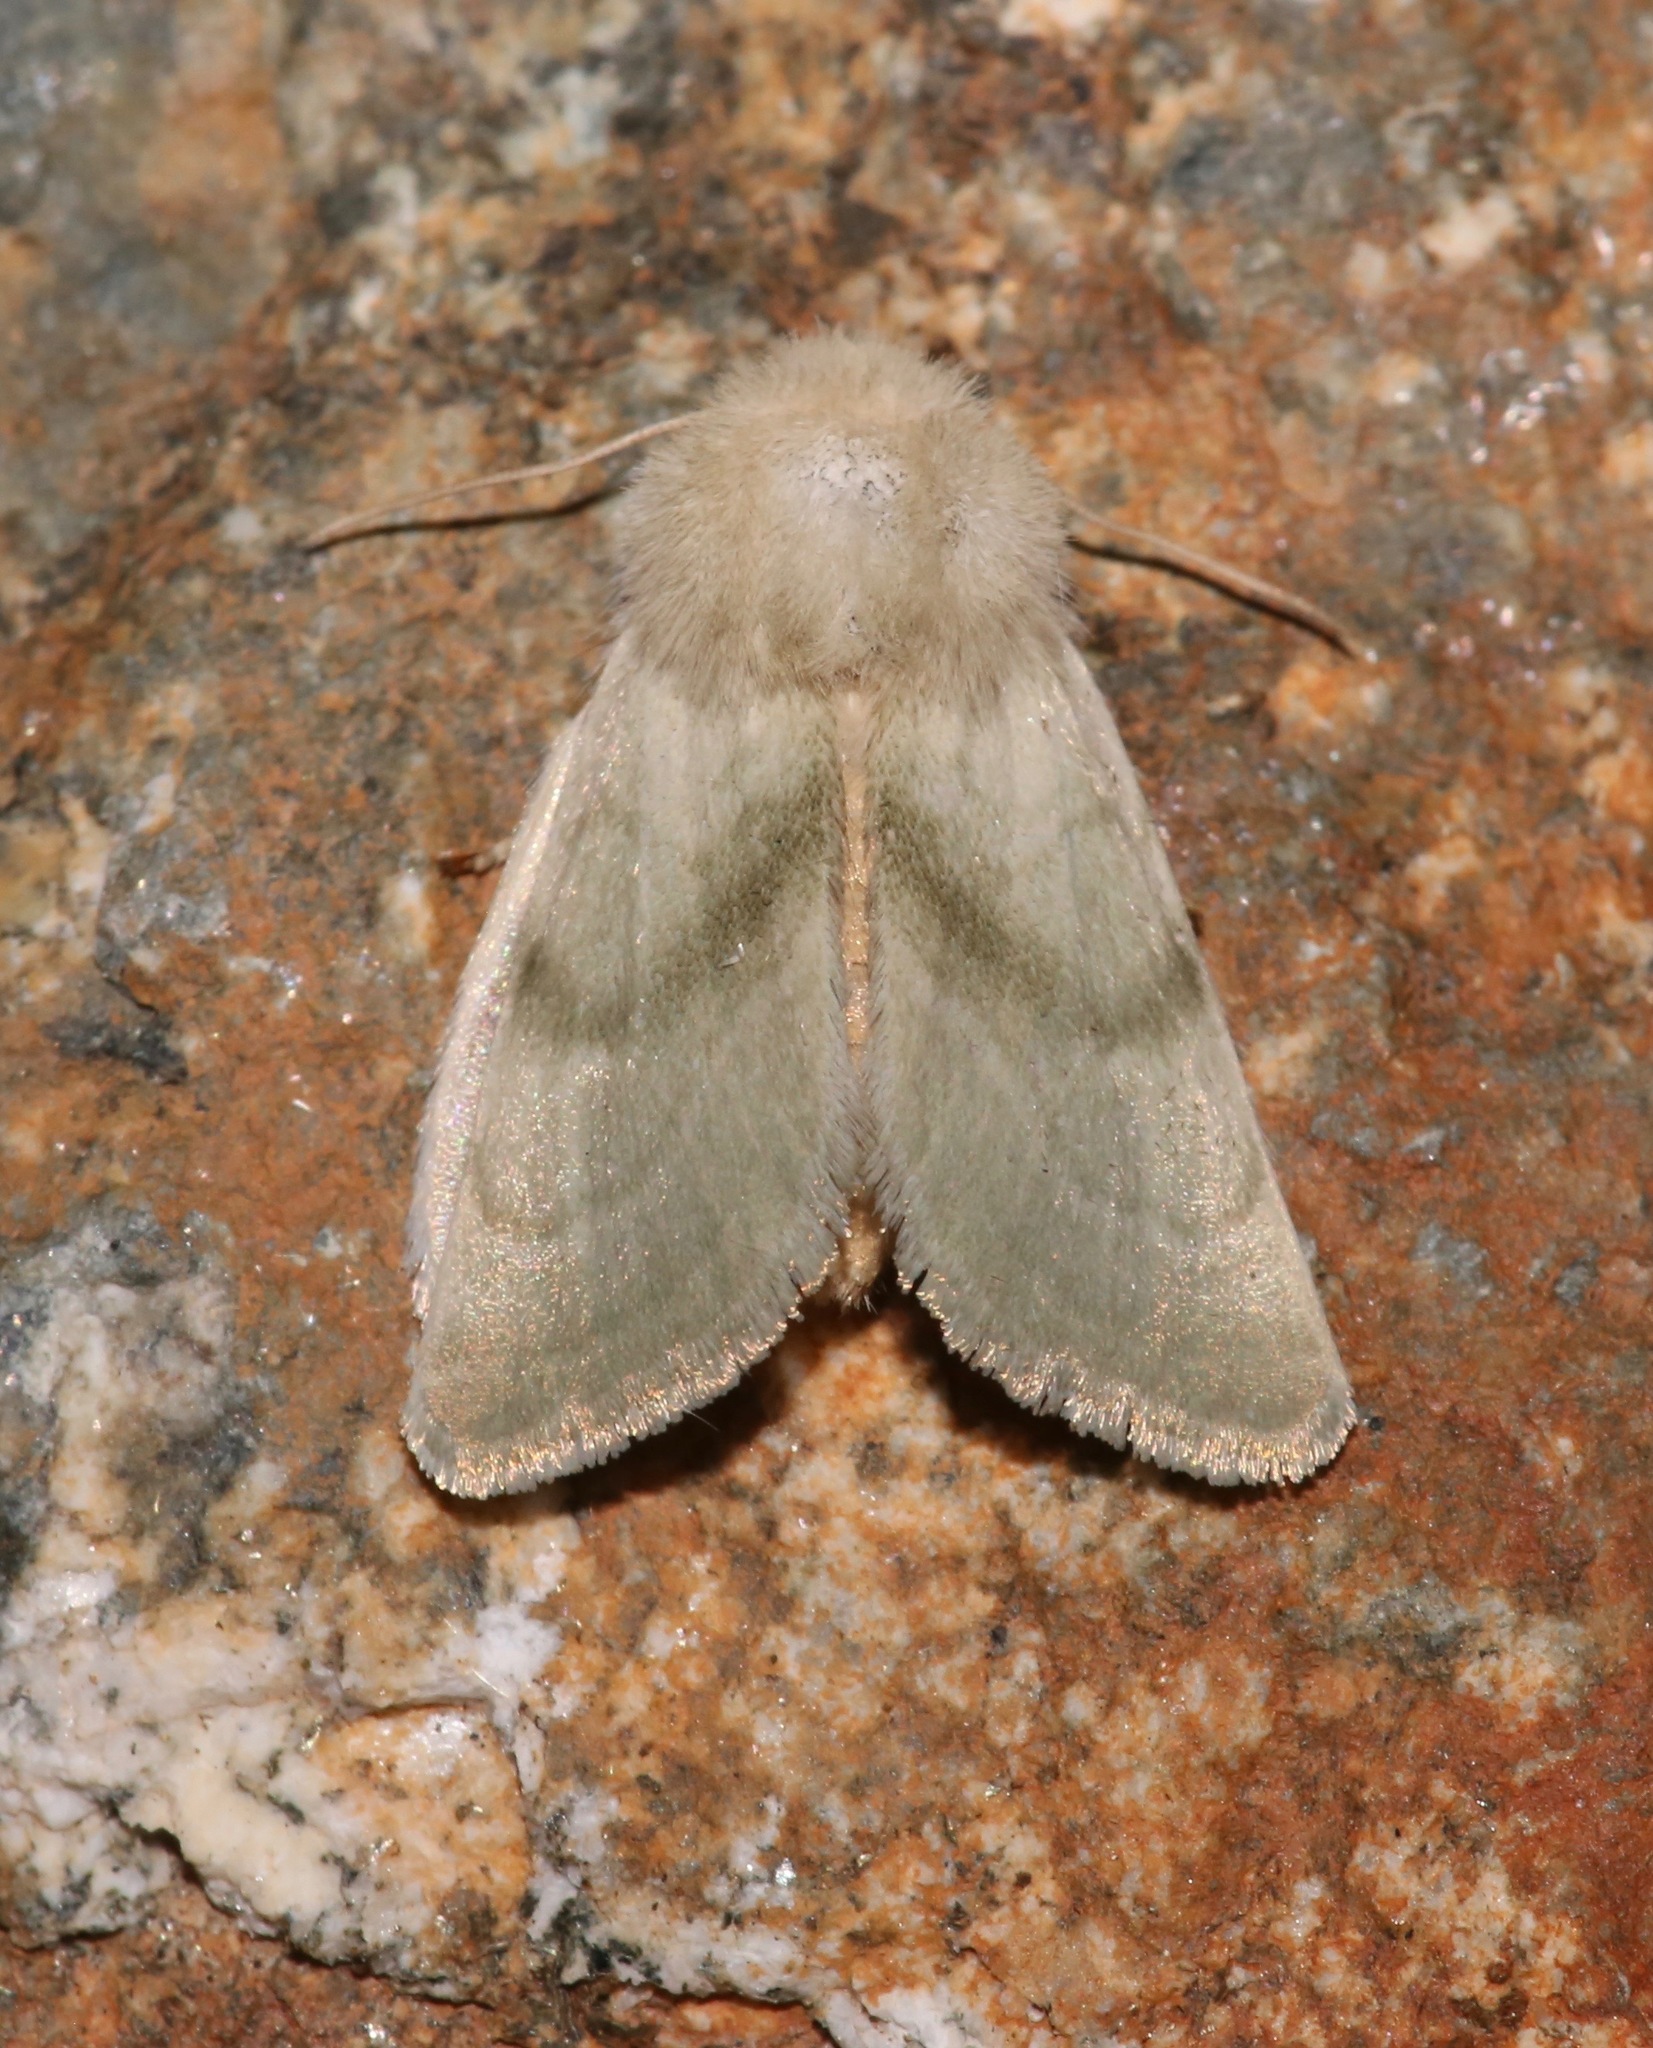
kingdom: Animalia
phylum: Arthropoda
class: Insecta
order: Lepidoptera
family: Noctuidae
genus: Nocloa
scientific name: Nocloa pallens
